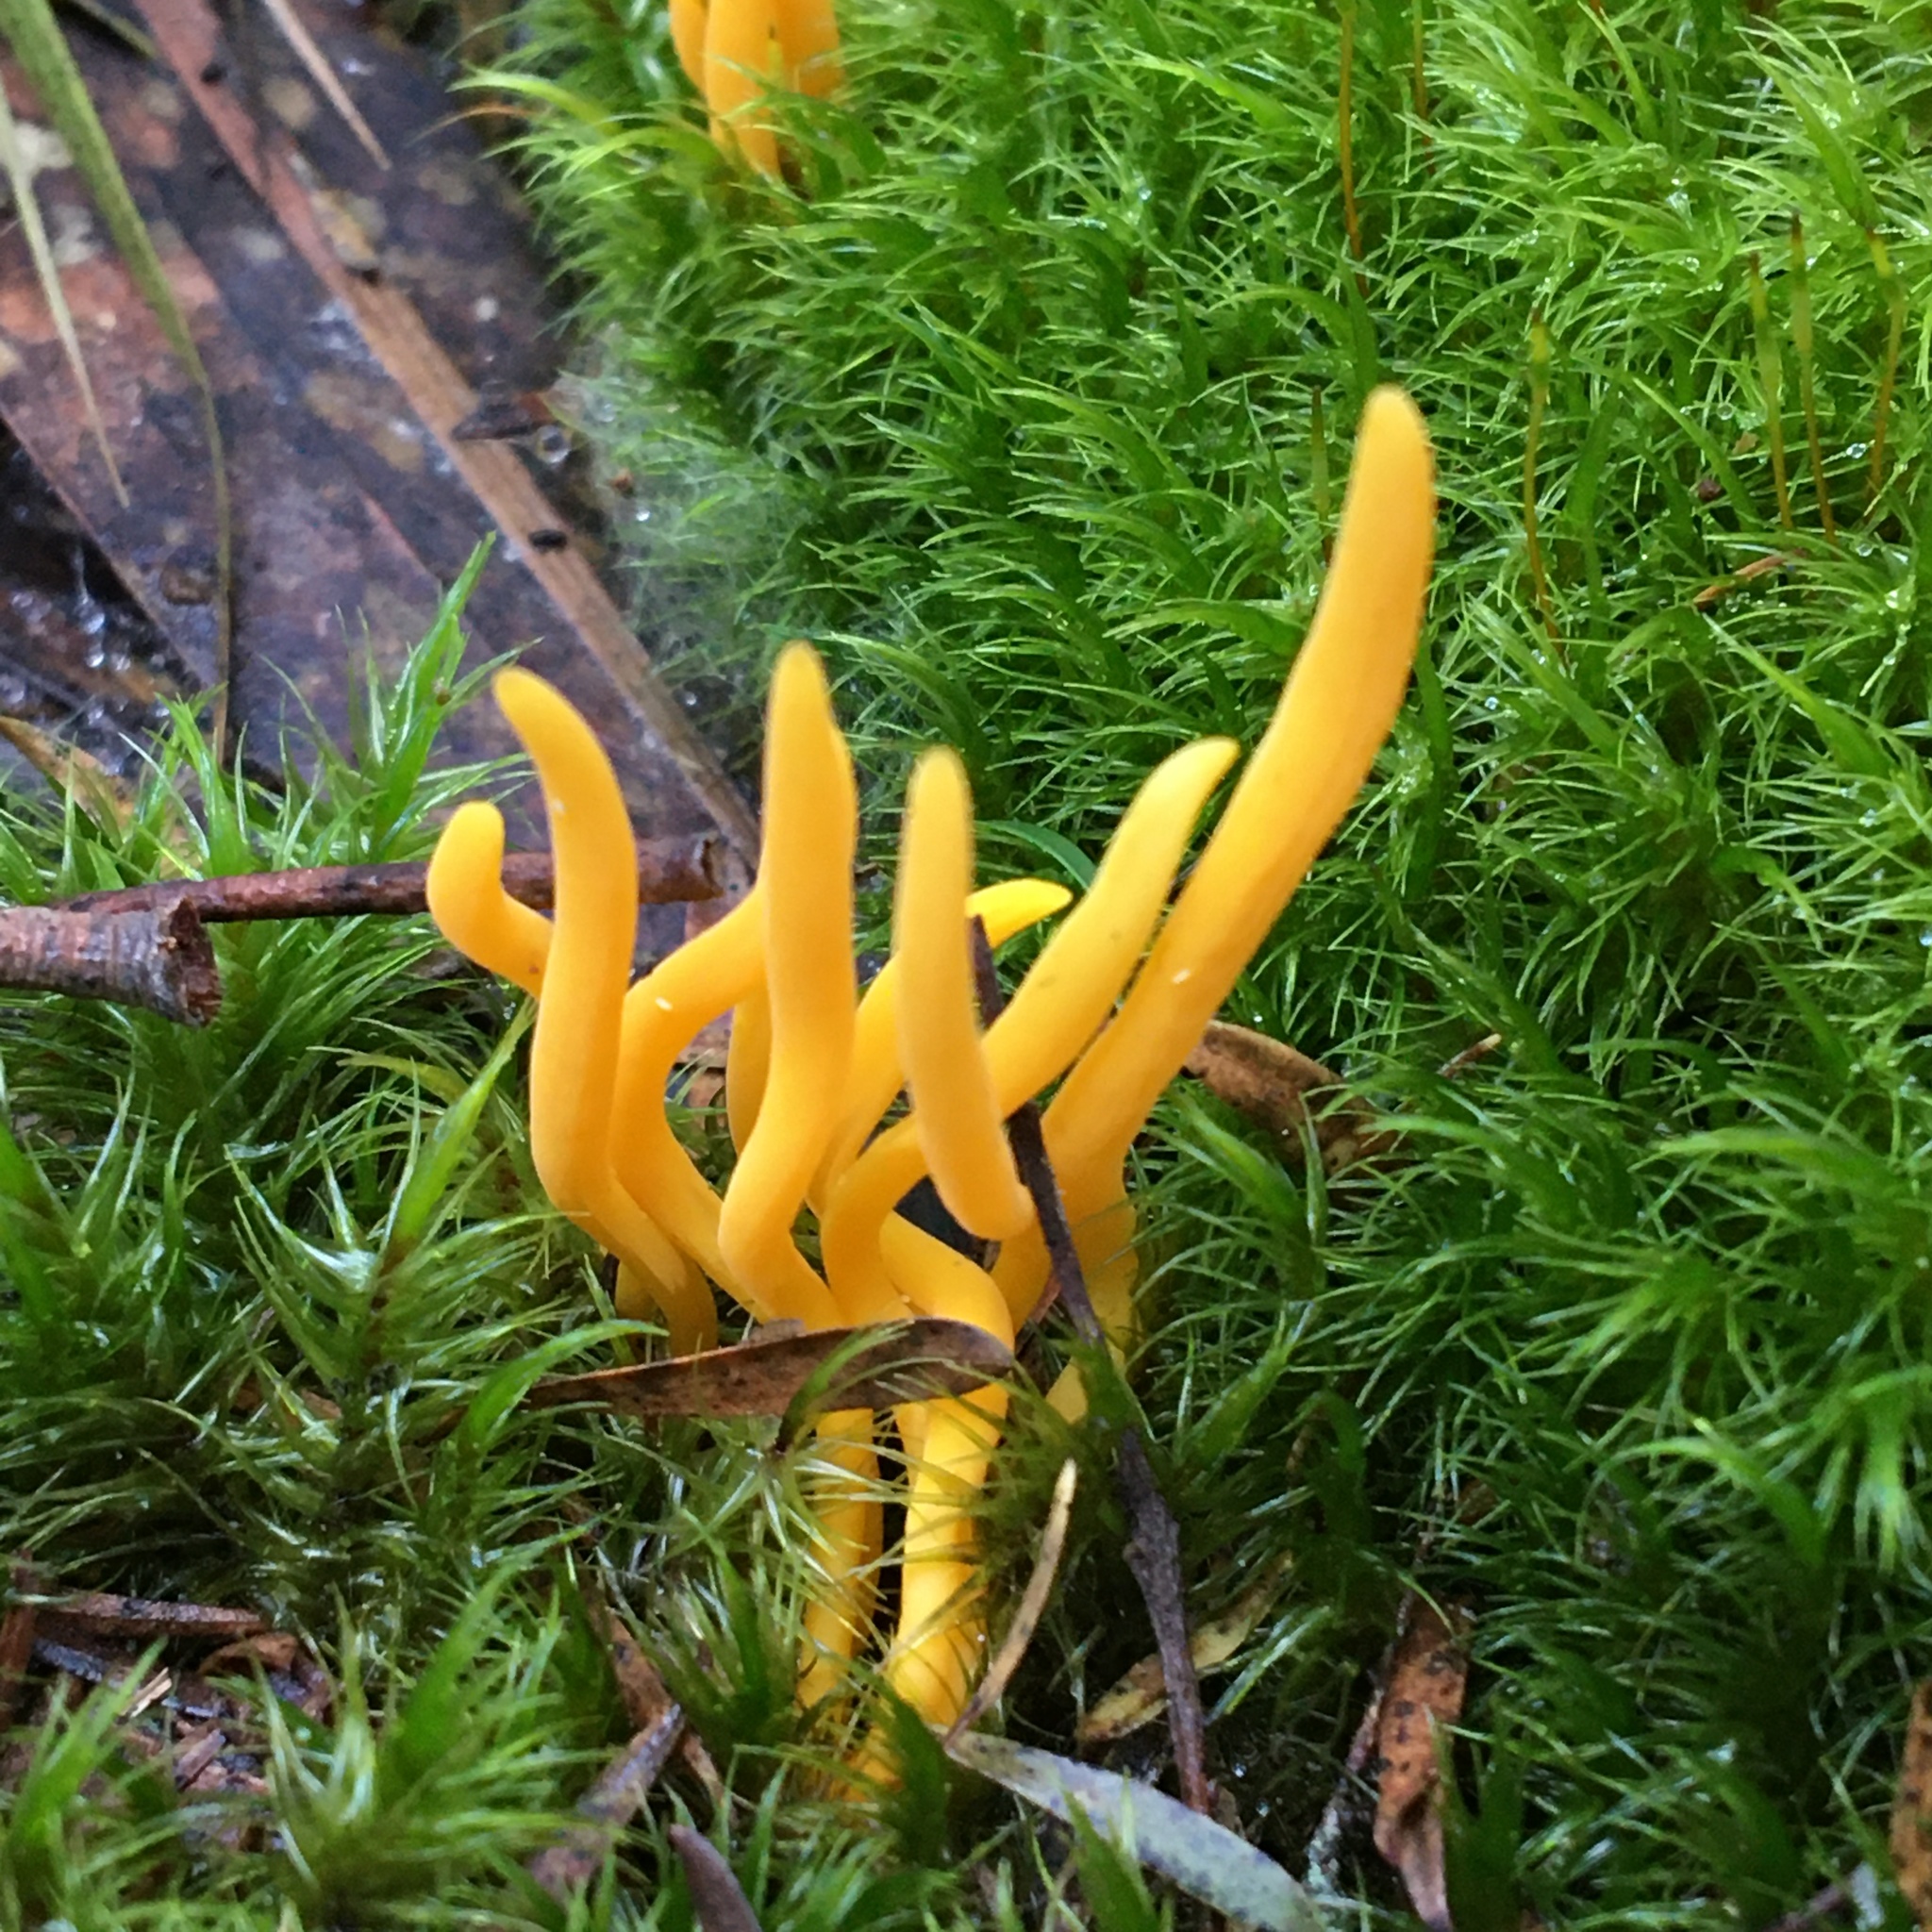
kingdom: Fungi
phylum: Basidiomycota
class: Agaricomycetes
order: Agaricales
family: Clavariaceae
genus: Clavulinopsis
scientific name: Clavulinopsis amoena
